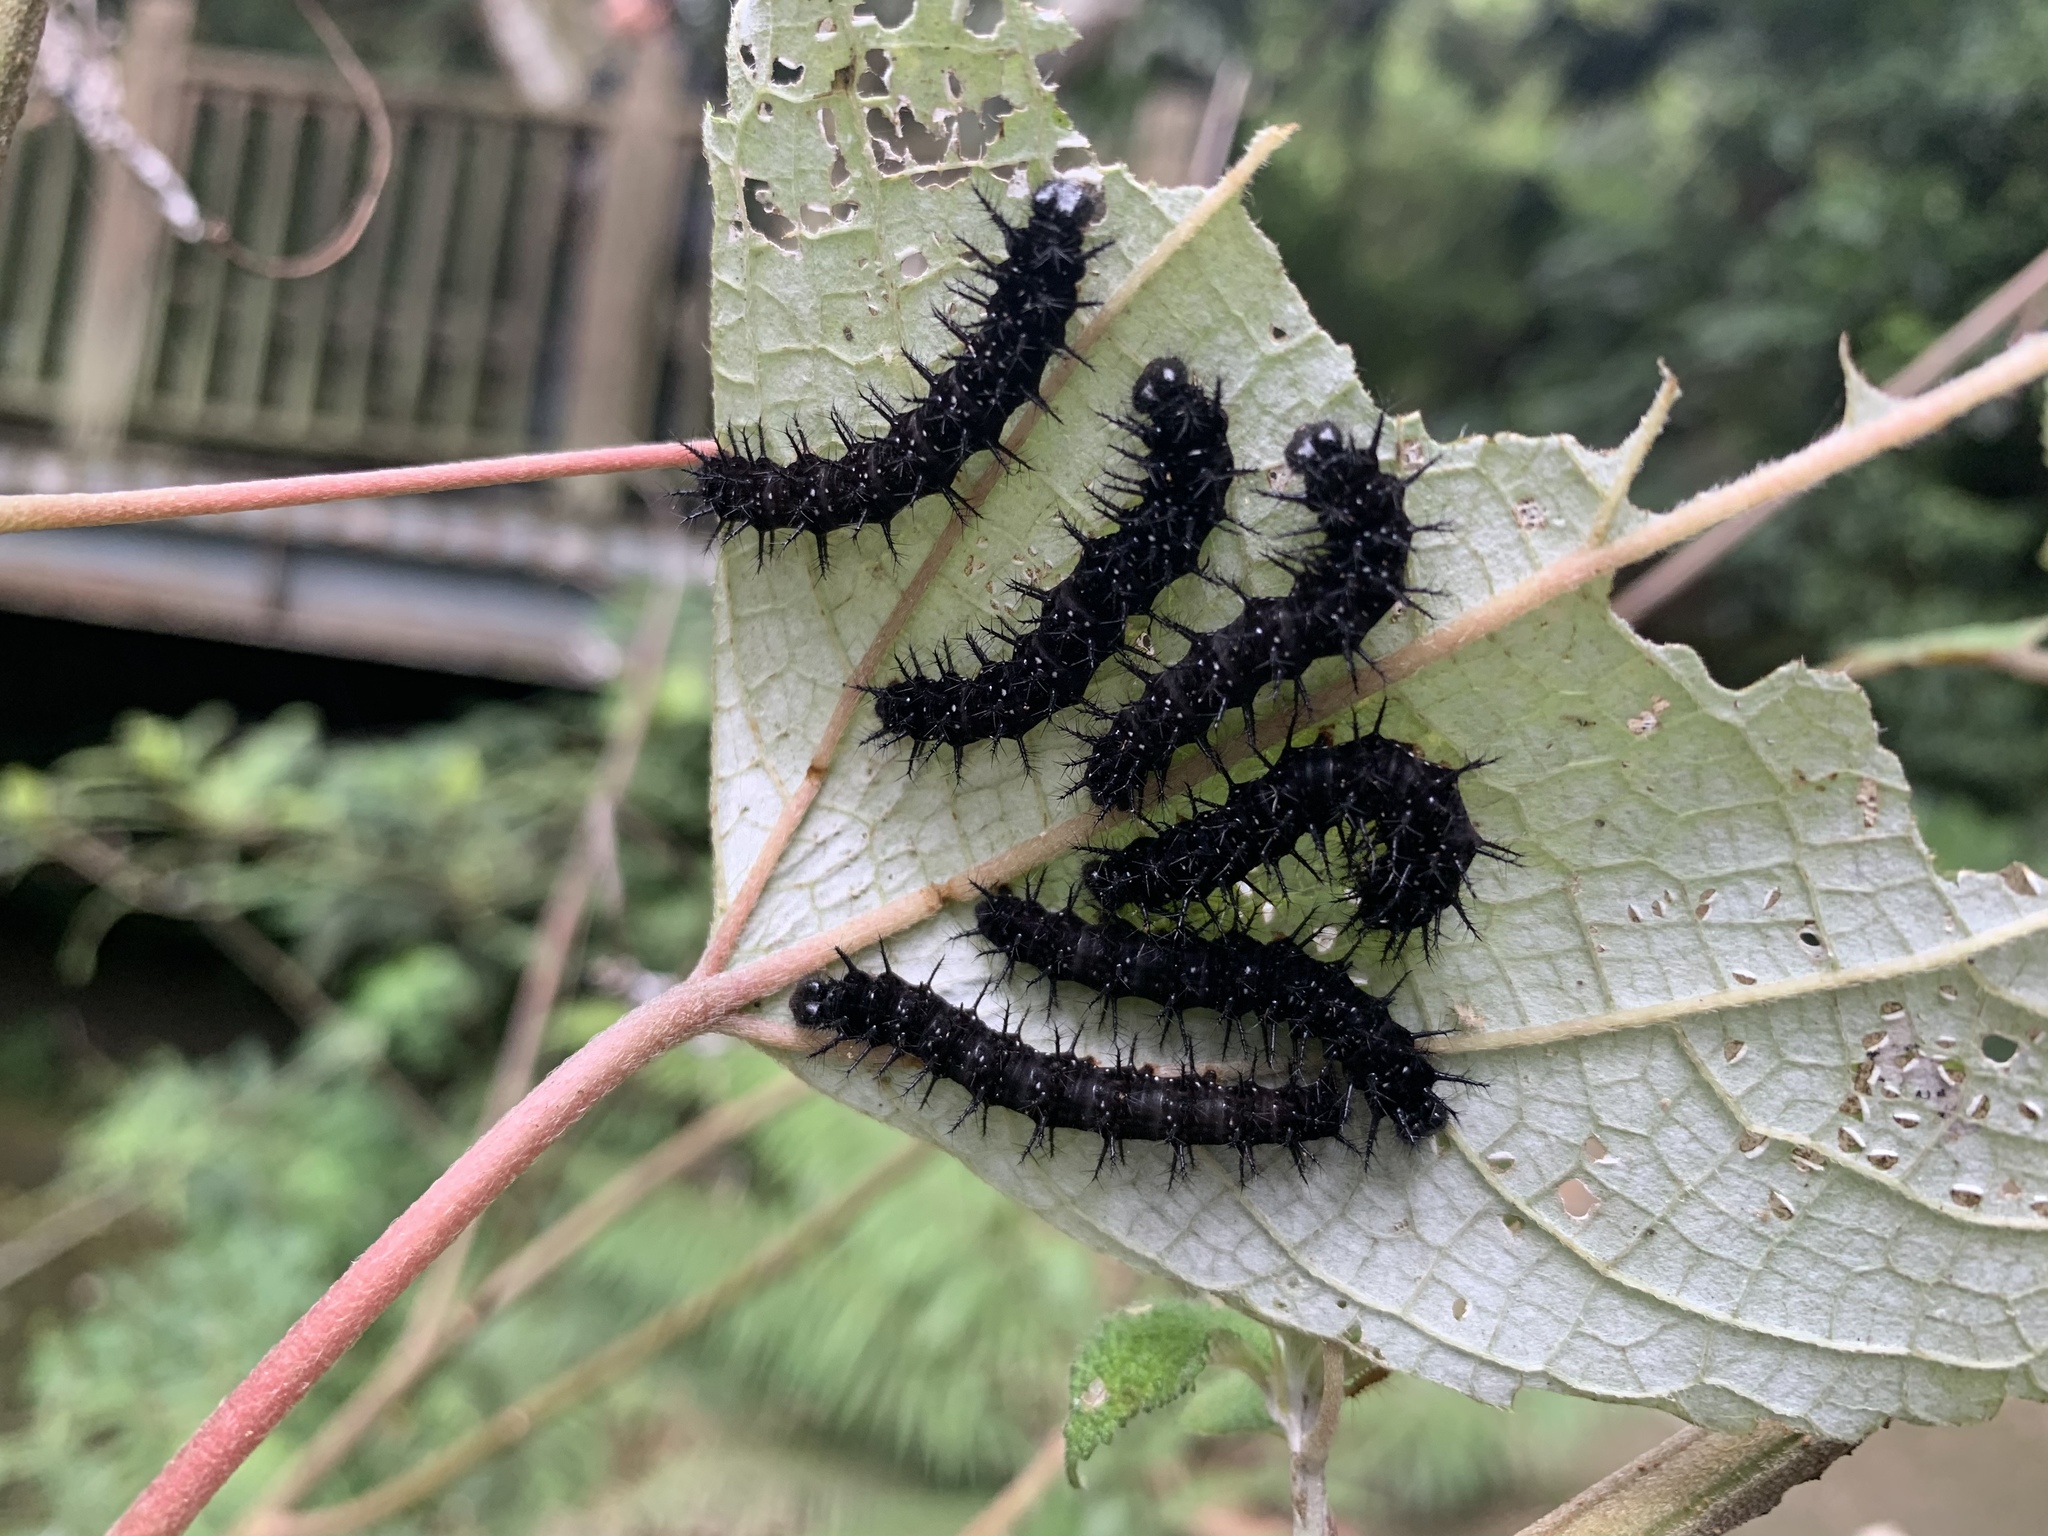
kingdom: Animalia
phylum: Arthropoda
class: Insecta
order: Lepidoptera
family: Nymphalidae
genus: Symbrenthia
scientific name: Symbrenthia hypselis
